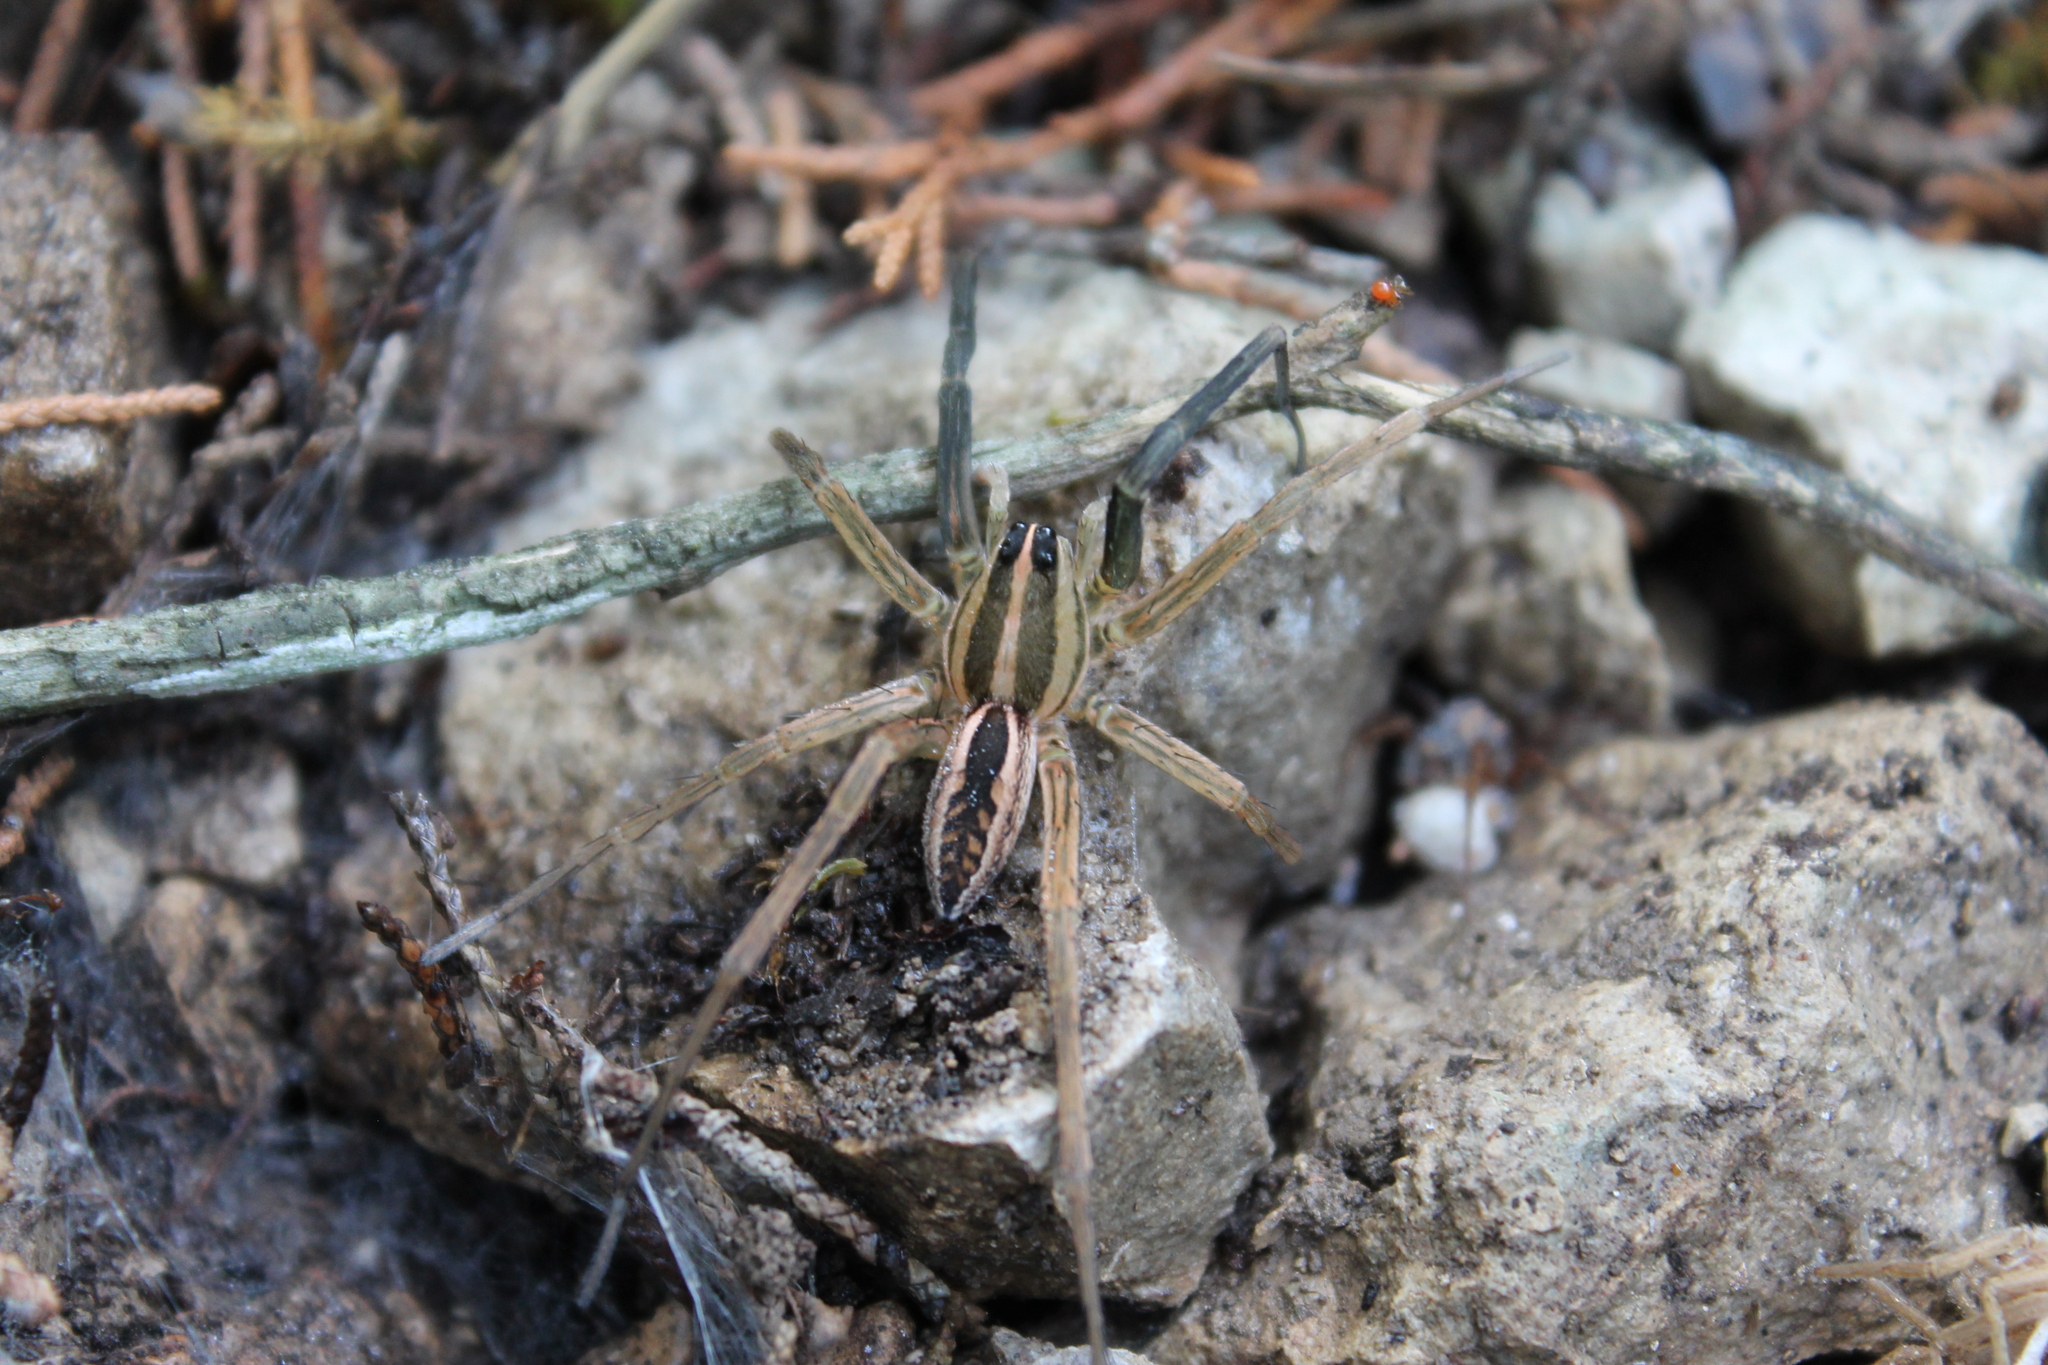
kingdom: Animalia
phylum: Arthropoda
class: Arachnida
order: Araneae
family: Lycosidae
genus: Rabidosa
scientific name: Rabidosa rabida
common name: Rabid wolf spider
